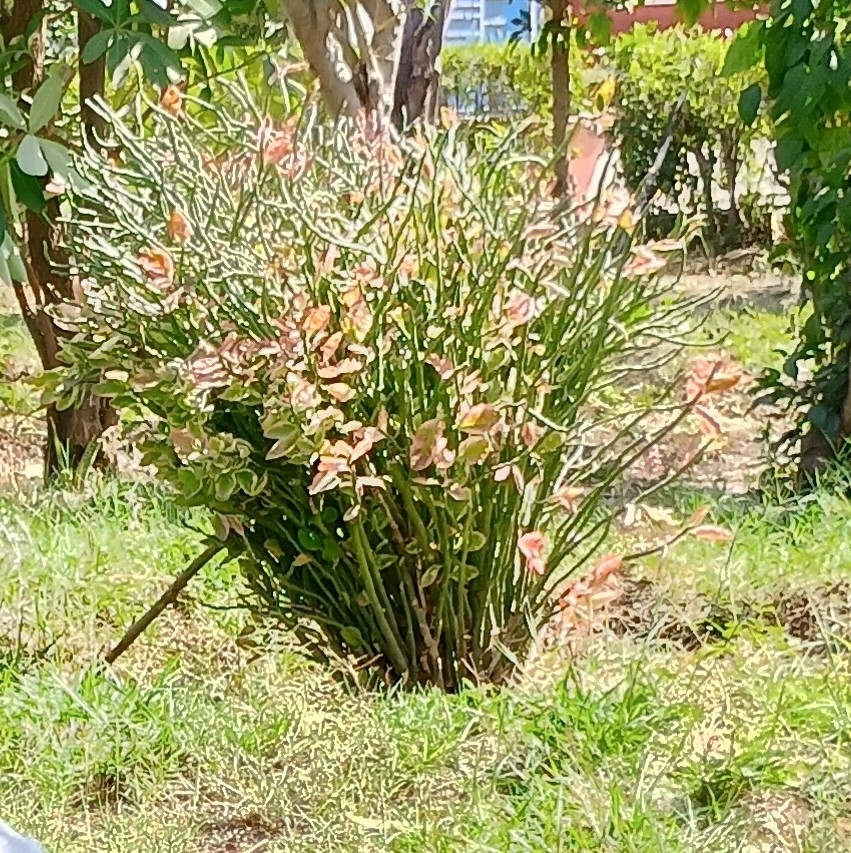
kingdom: Plantae
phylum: Tracheophyta
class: Magnoliopsida
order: Malpighiales
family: Euphorbiaceae
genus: Euphorbia
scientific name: Euphorbia tithymaloides
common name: Slipperplant
